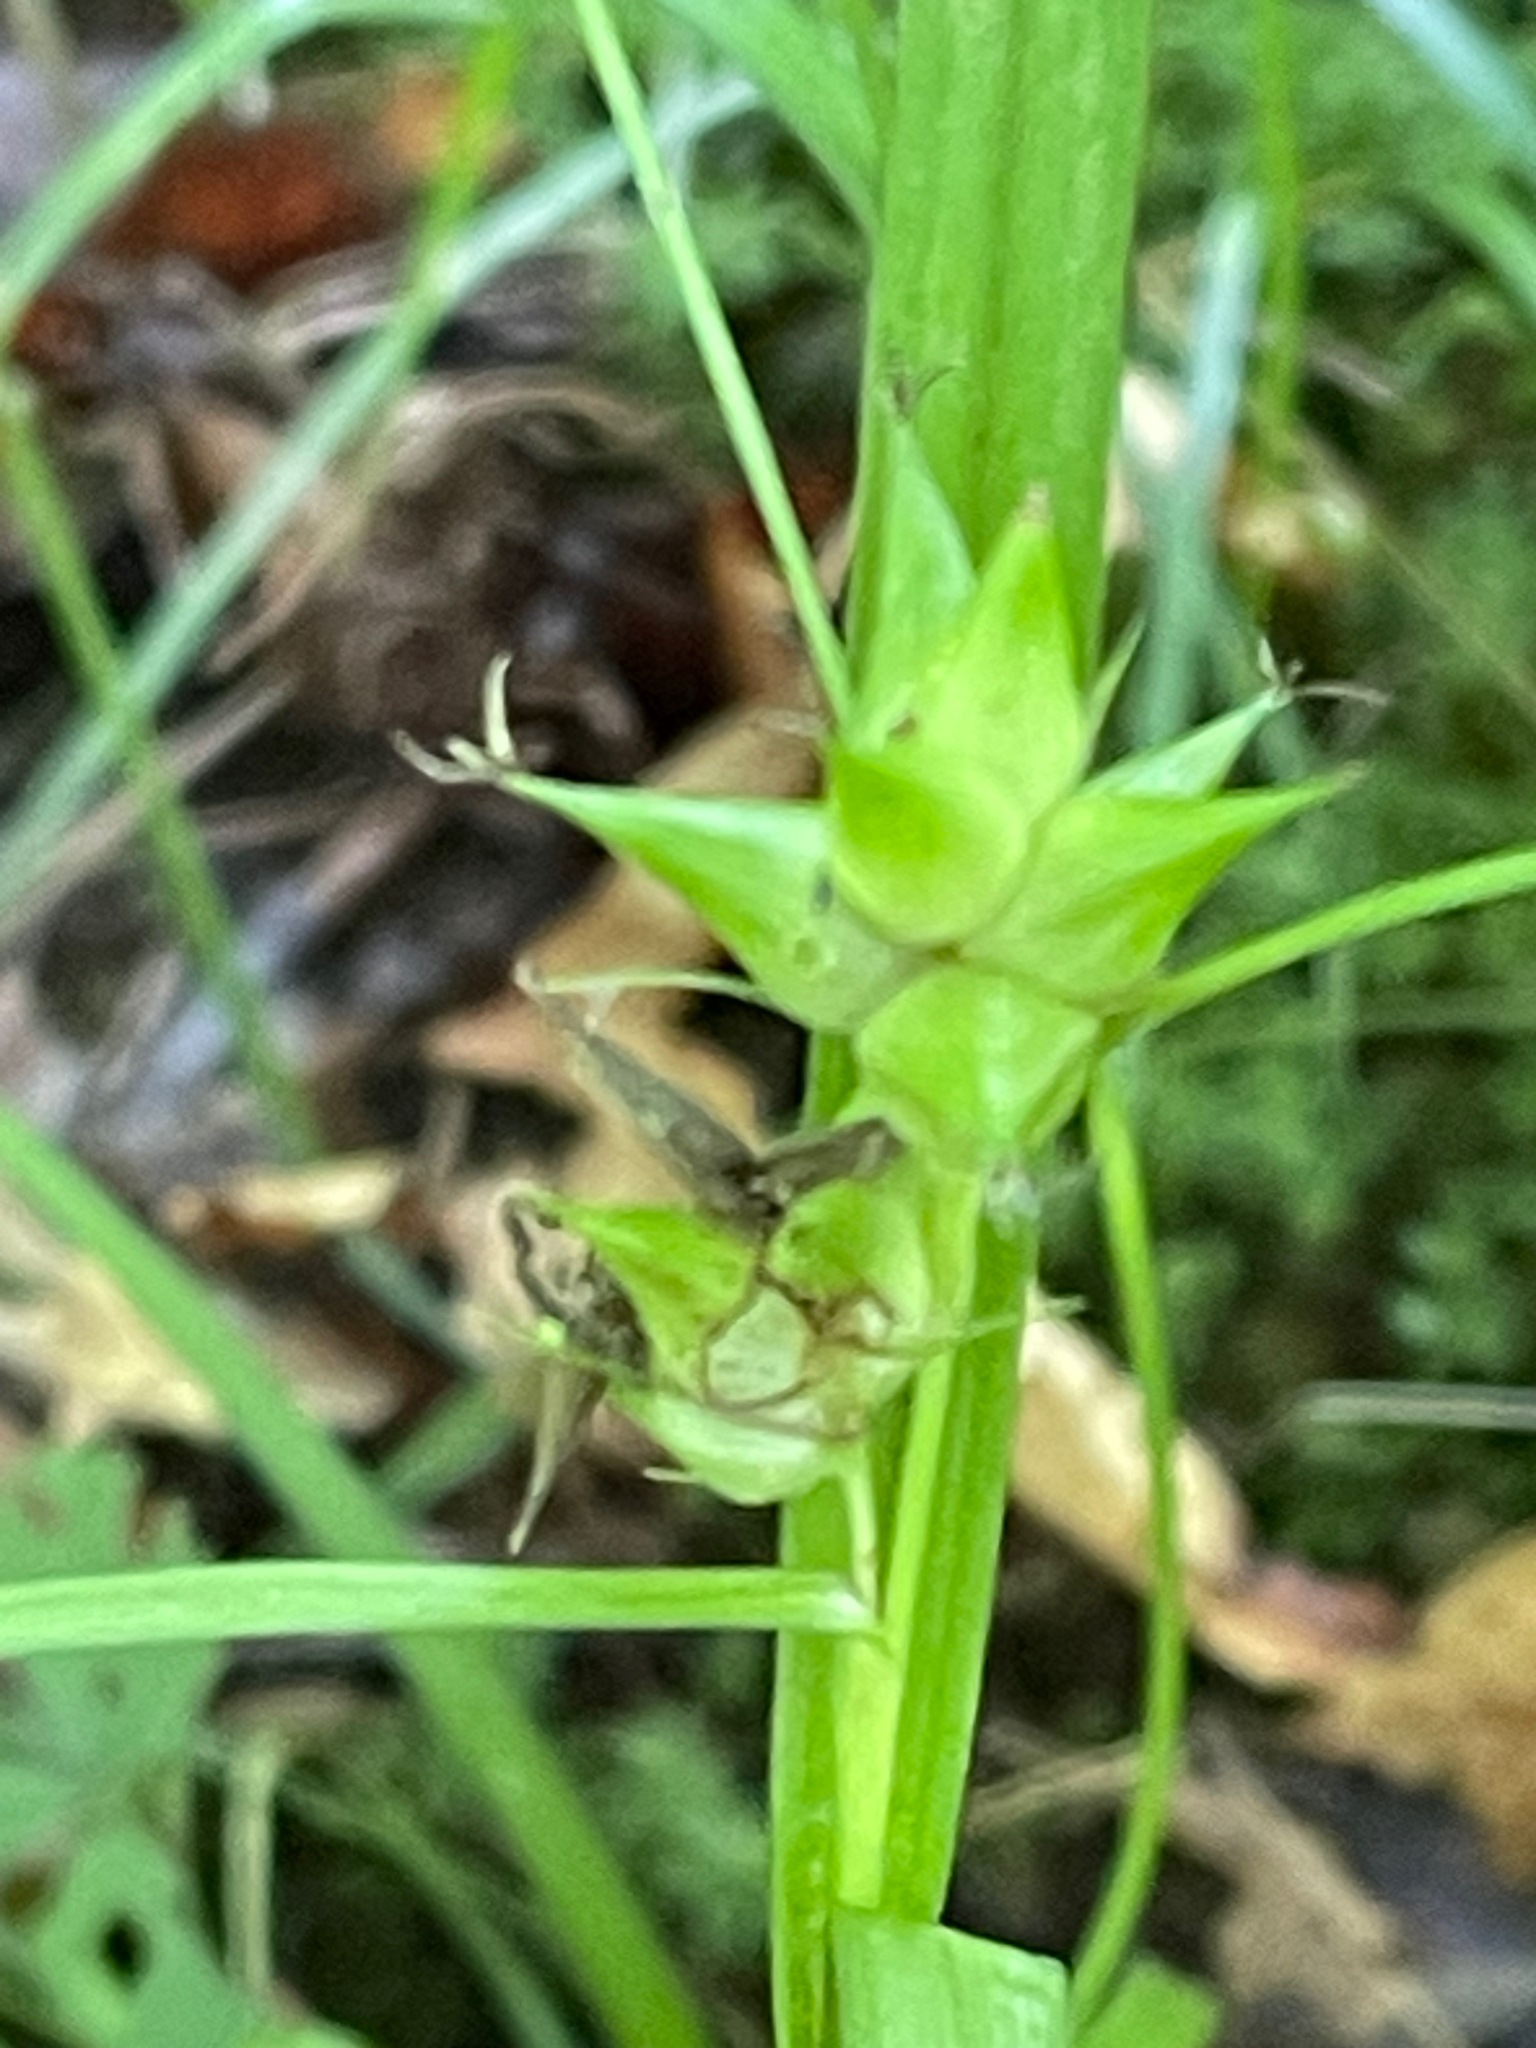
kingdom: Plantae
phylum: Tracheophyta
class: Liliopsida
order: Poales
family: Cyperaceae
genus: Carex
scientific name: Carex intumescens
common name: Greater bladder sedge
